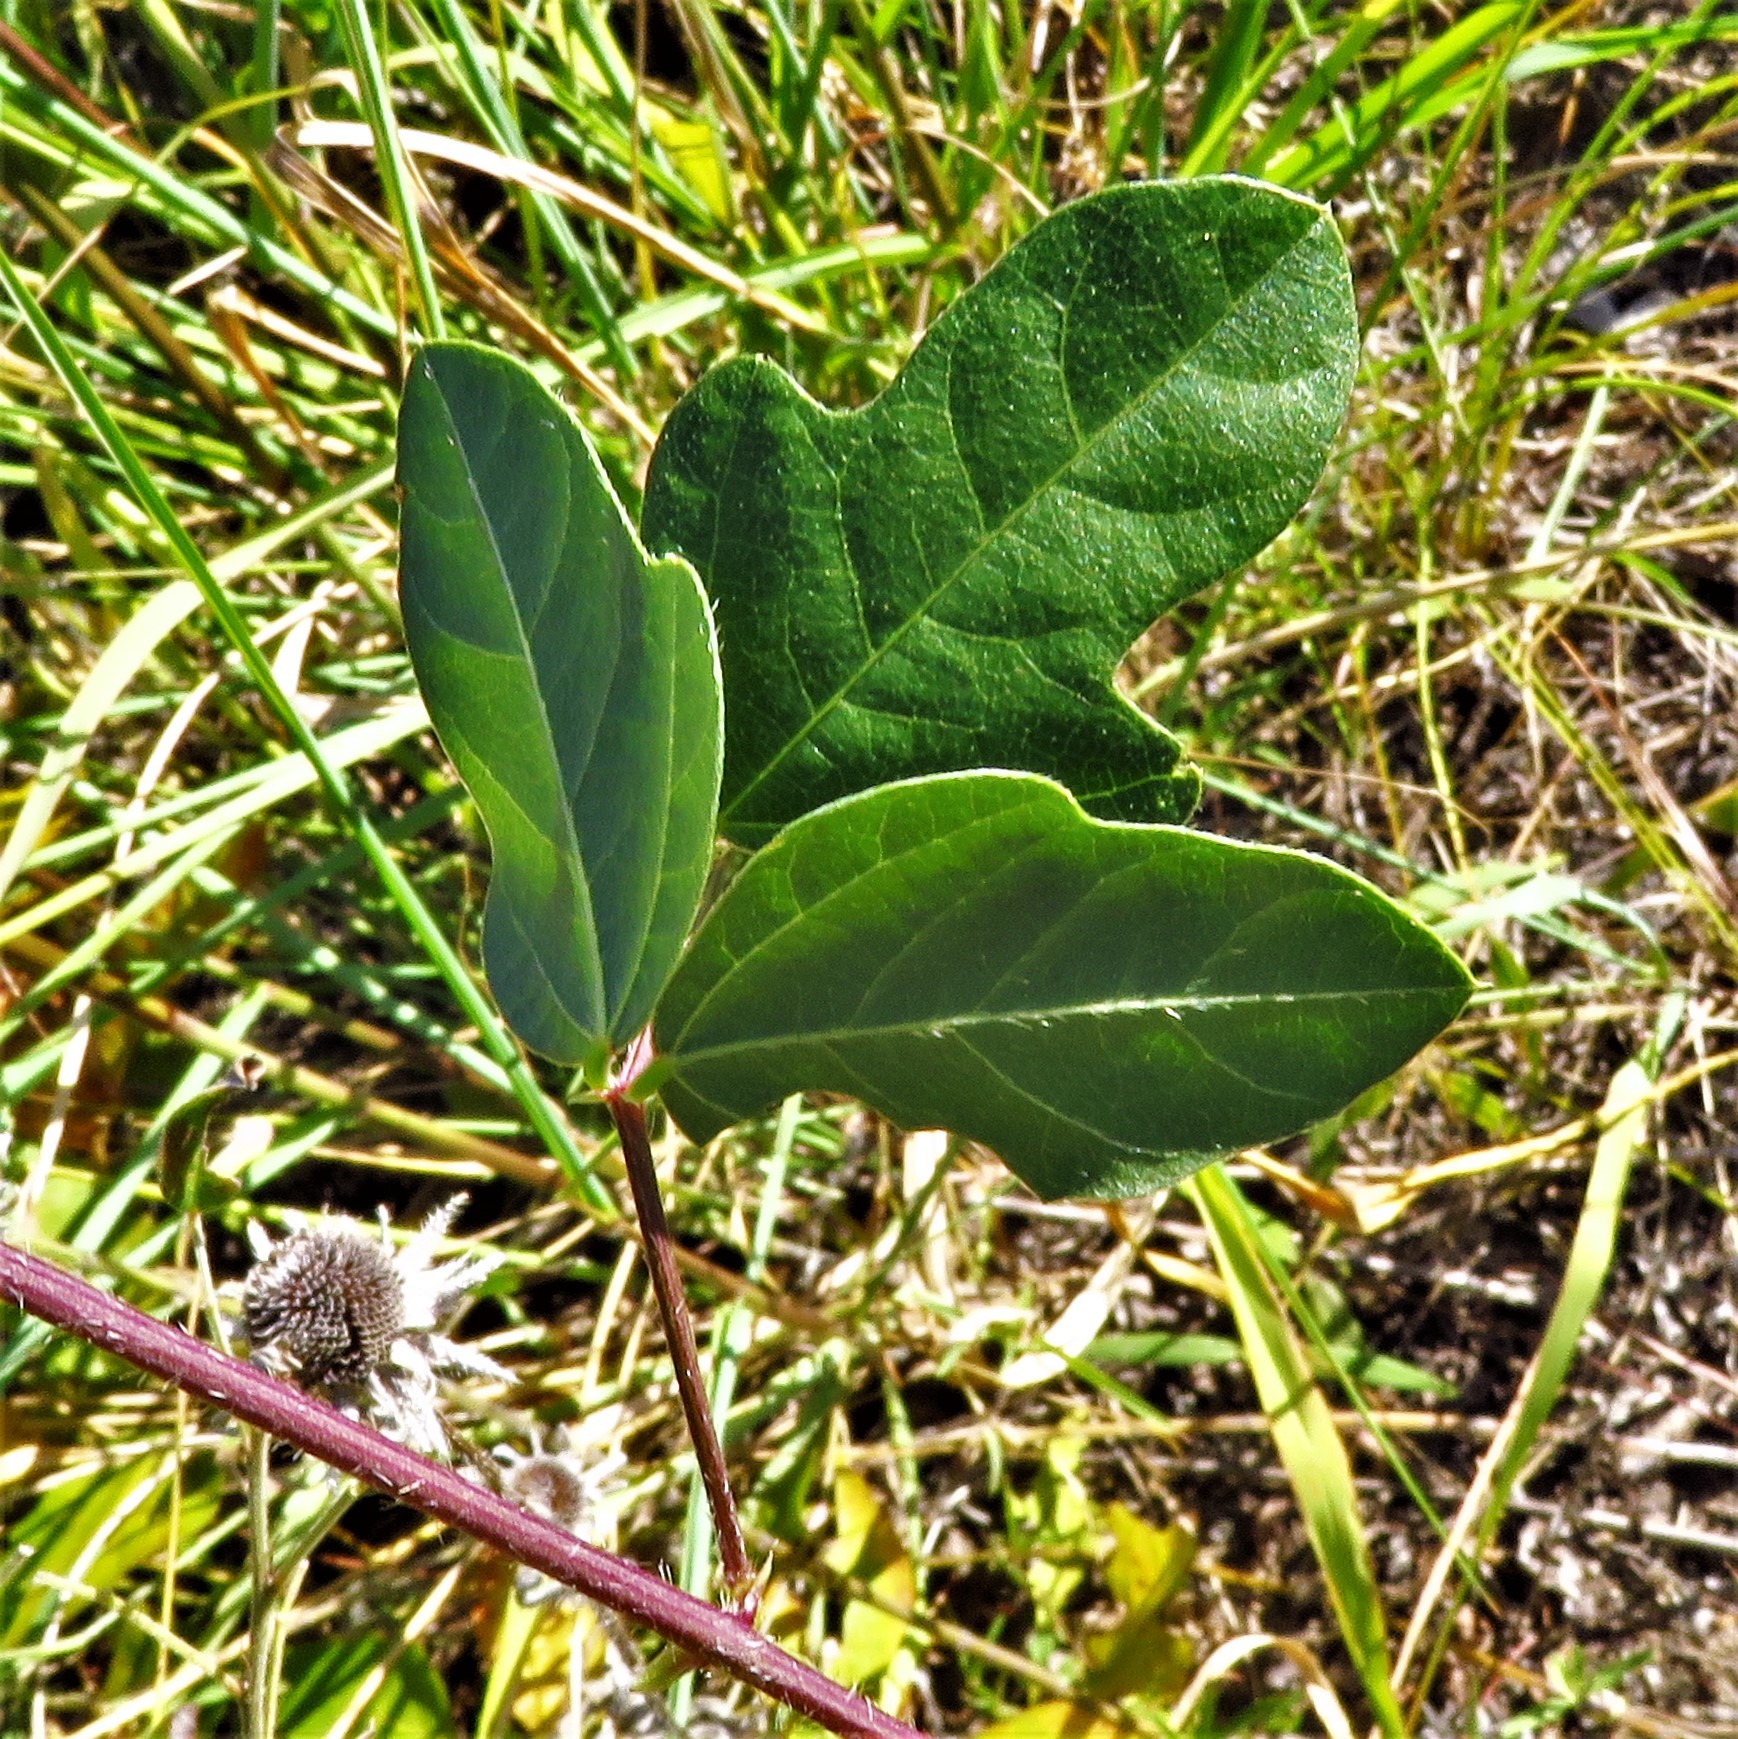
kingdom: Plantae
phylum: Tracheophyta
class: Magnoliopsida
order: Fabales
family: Fabaceae
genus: Strophostyles
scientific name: Strophostyles helvola
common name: Trailing wild bean
